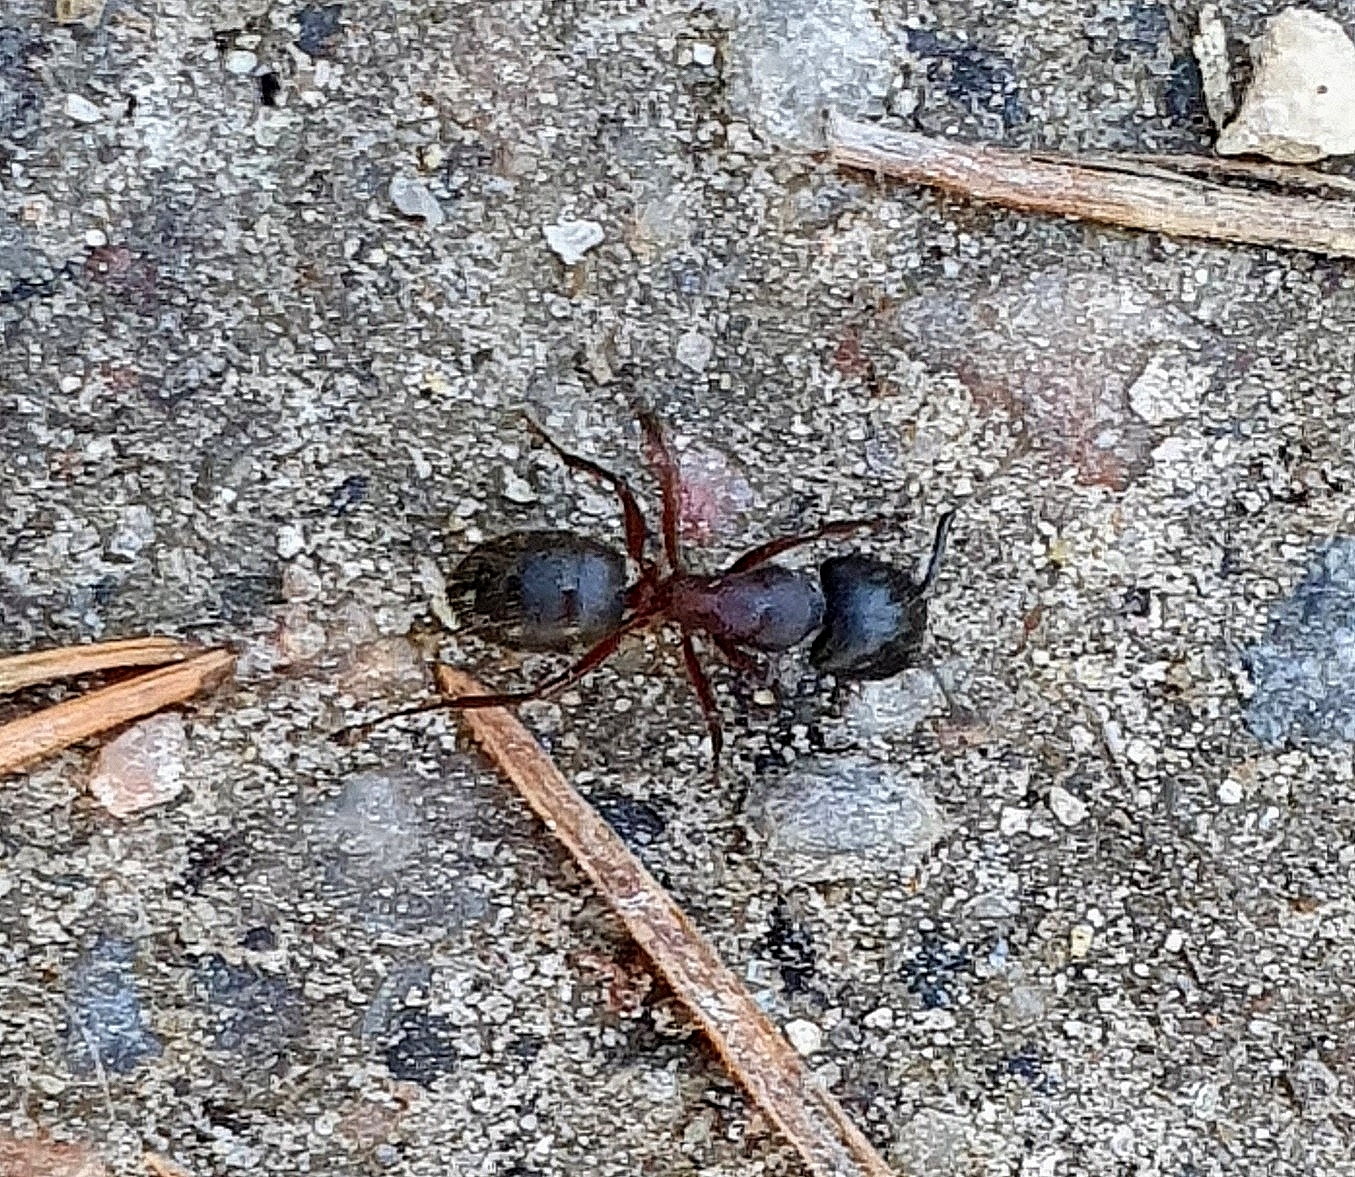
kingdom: Animalia
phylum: Arthropoda
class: Insecta
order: Hymenoptera
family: Formicidae
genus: Camponotus
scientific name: Camponotus herculeanus
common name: Hercules ant
